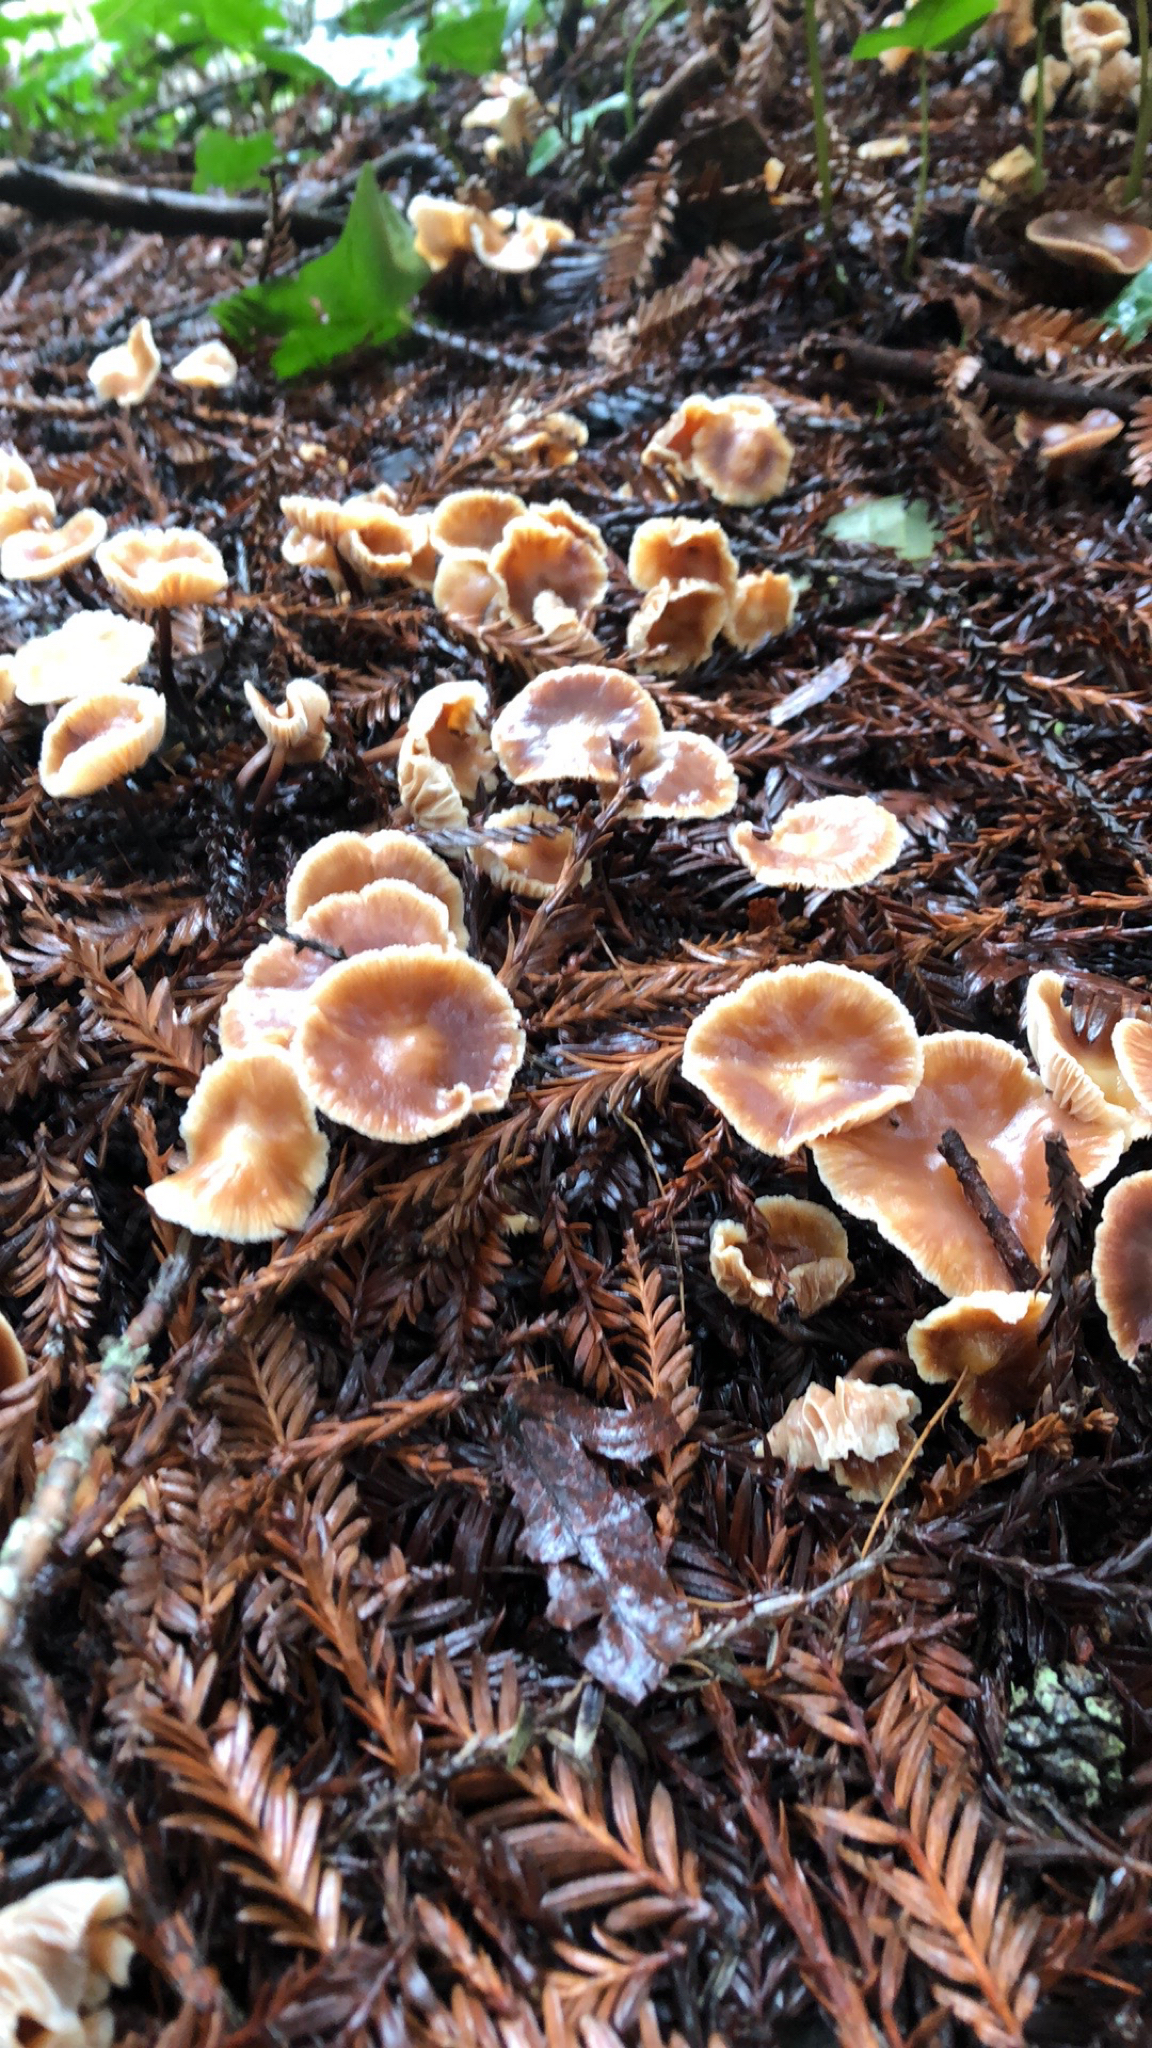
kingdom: Fungi
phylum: Basidiomycota
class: Agaricomycetes
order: Agaricales
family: Omphalotaceae
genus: Gymnopus
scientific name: Gymnopus brassicolens
